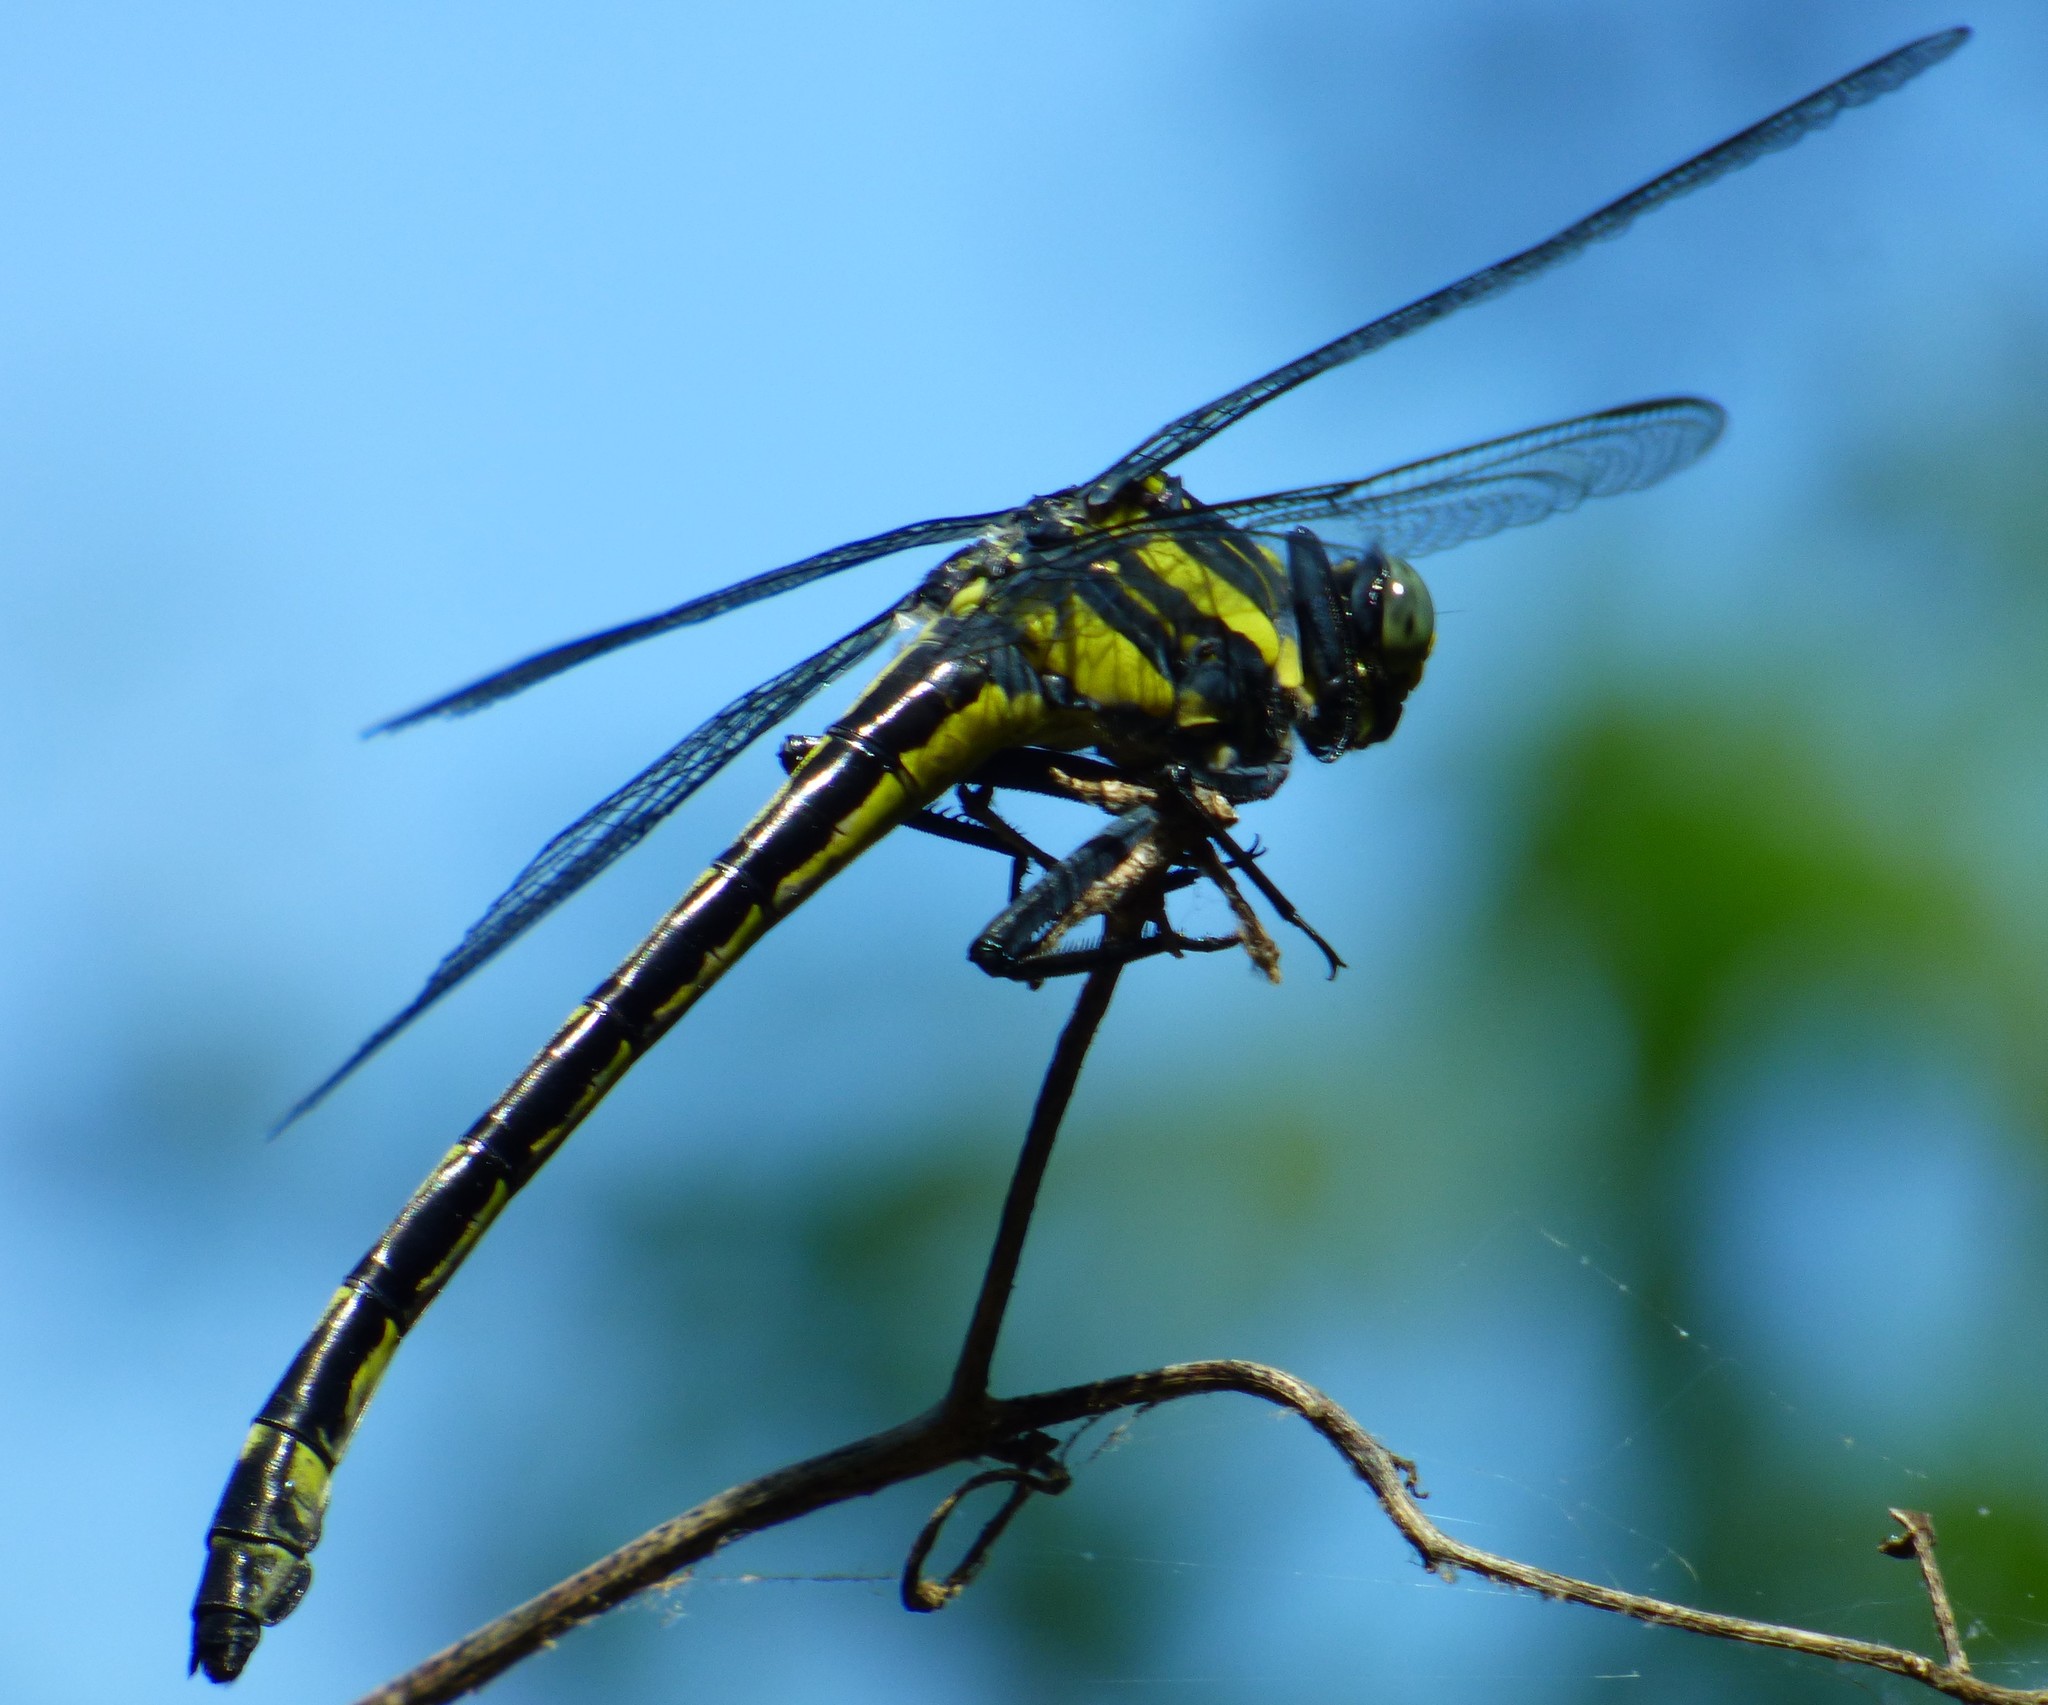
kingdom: Animalia
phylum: Arthropoda
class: Insecta
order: Odonata
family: Gomphidae
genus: Hagenius
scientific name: Hagenius brevistylus
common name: Dragonhunter
